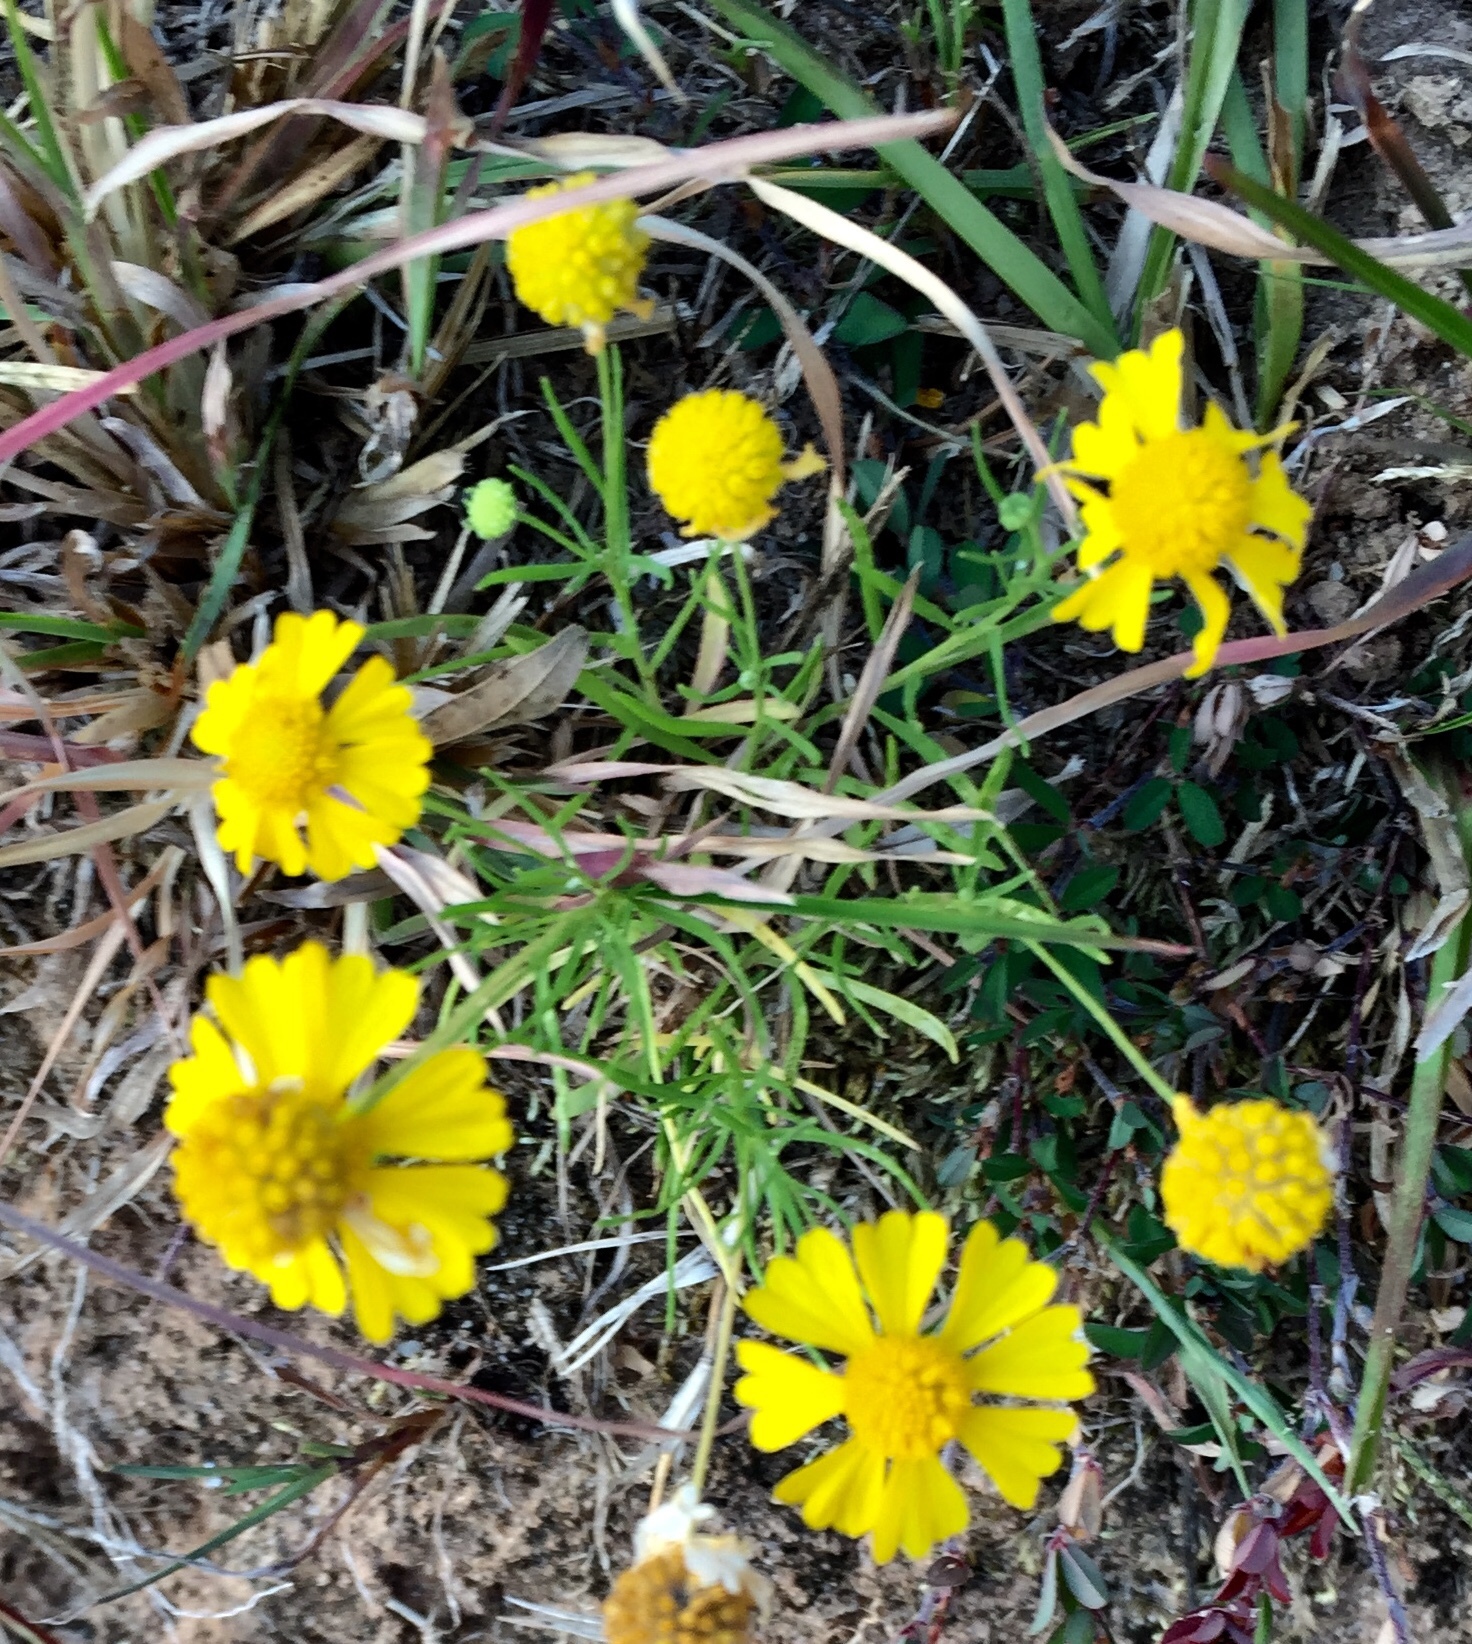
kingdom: Plantae
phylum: Tracheophyta
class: Magnoliopsida
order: Asterales
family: Asteraceae
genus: Helenium
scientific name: Helenium amarum
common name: Bitter sneezeweed
